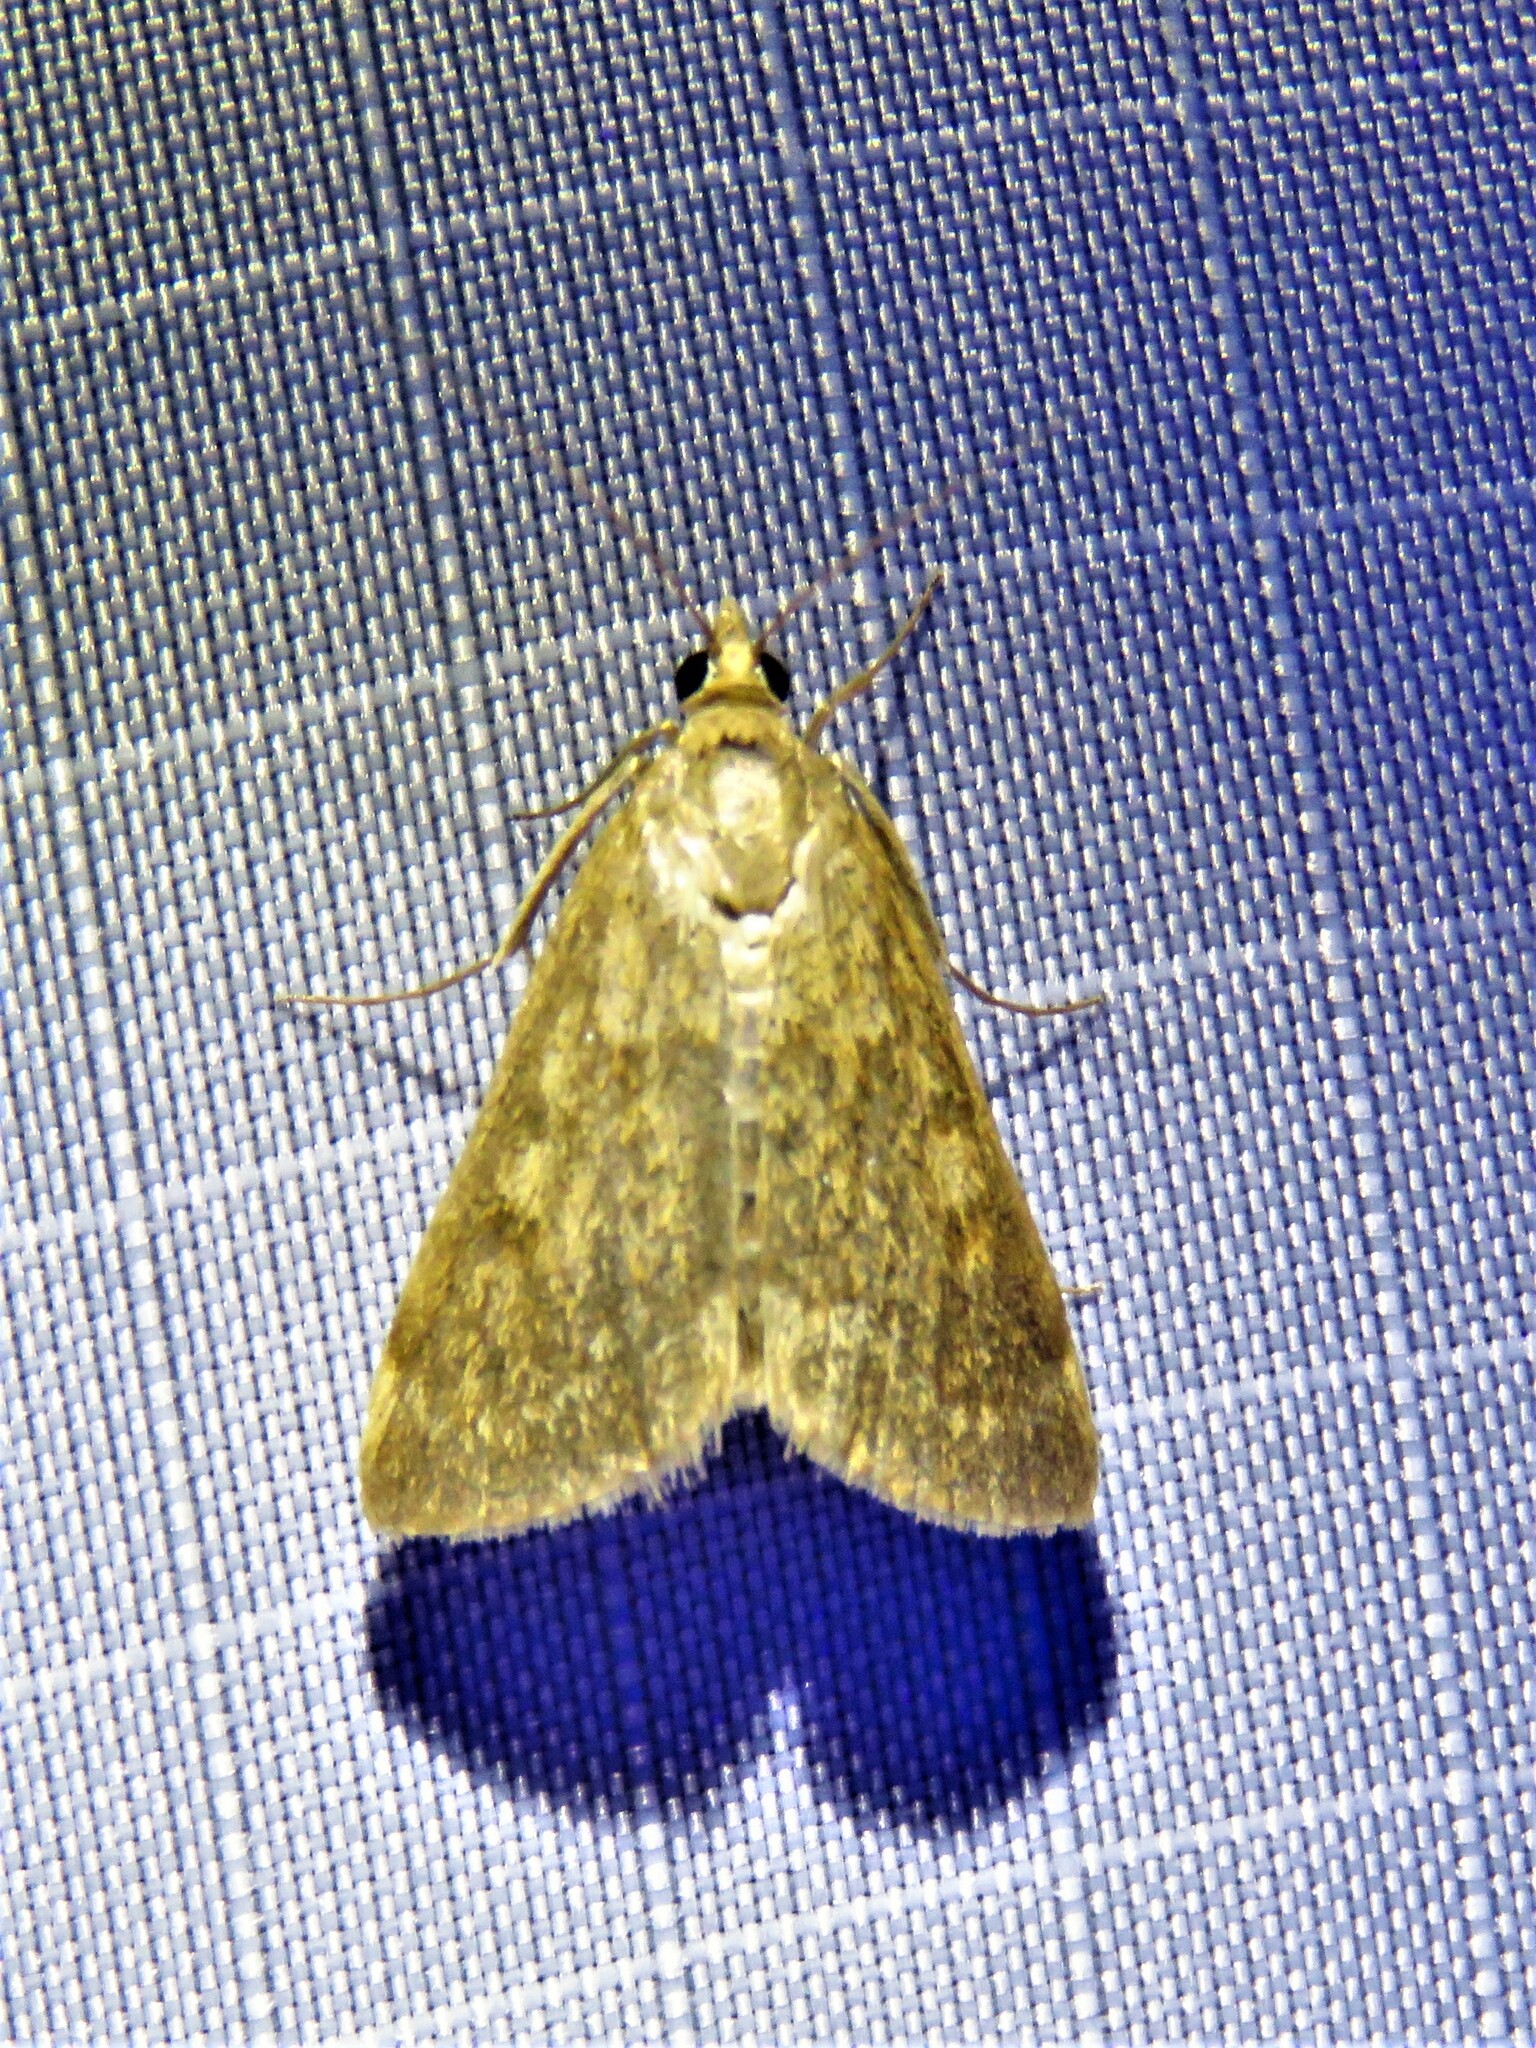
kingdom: Animalia
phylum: Arthropoda
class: Insecta
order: Lepidoptera
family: Crambidae
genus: Achyra
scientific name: Achyra rantalis
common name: Garden webworm
